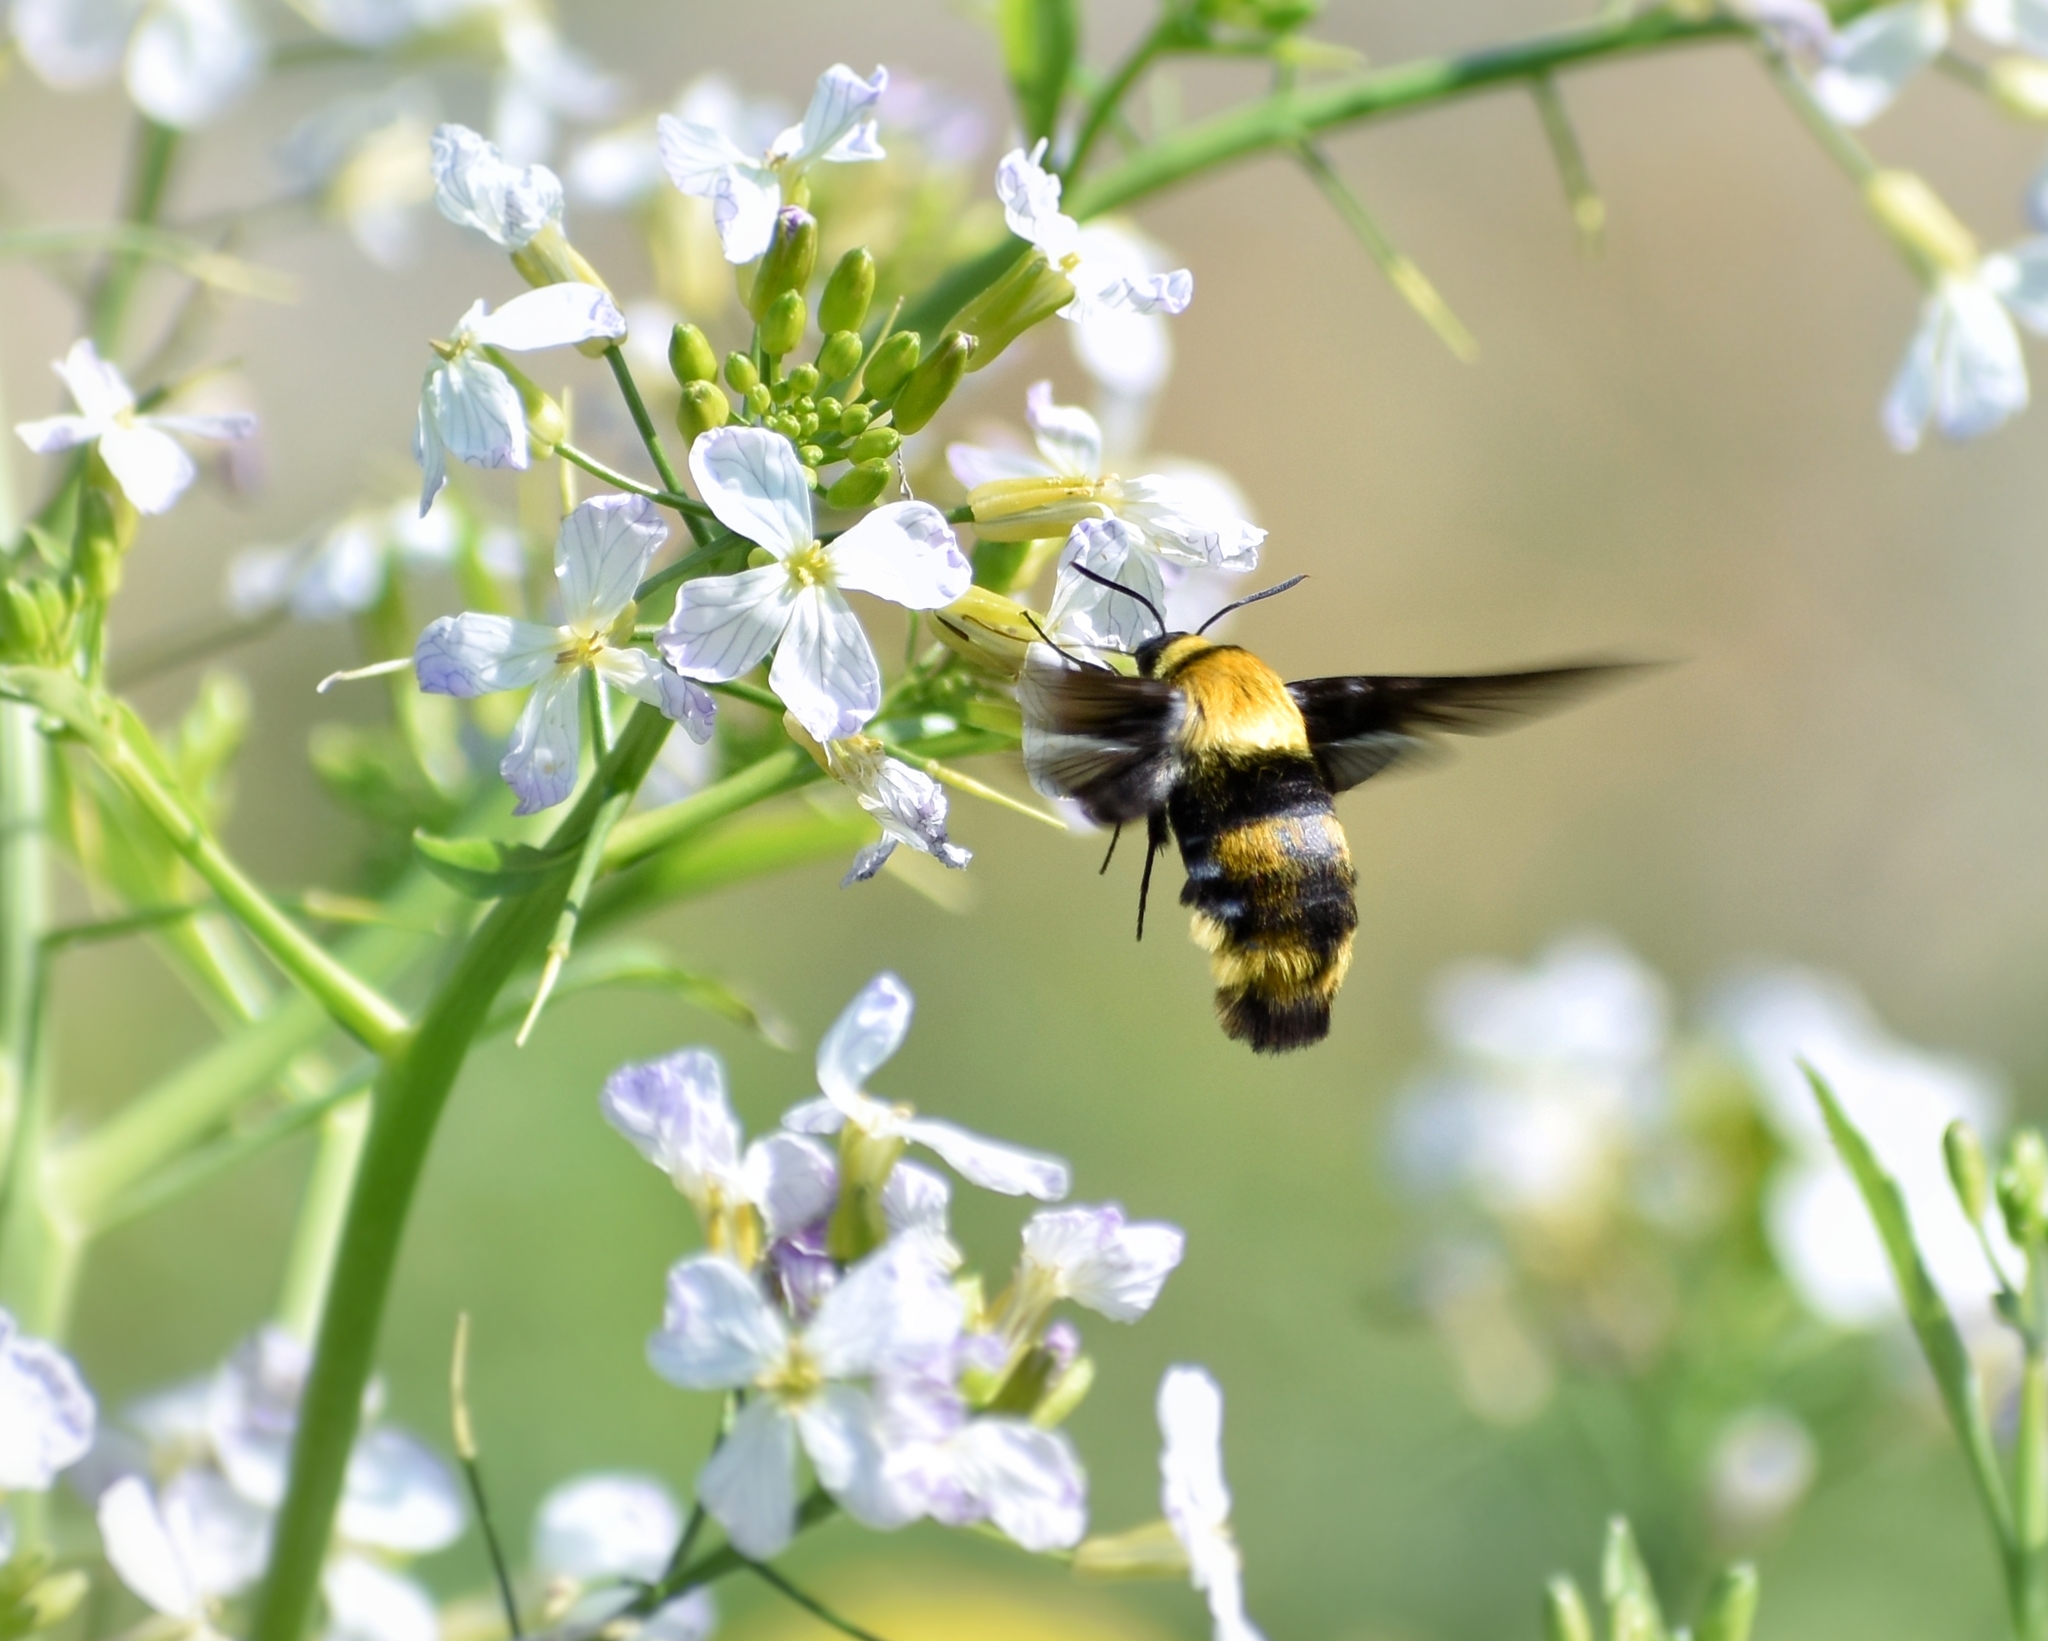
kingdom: Animalia
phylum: Arthropoda
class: Insecta
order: Lepidoptera
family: Sphingidae
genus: Sataspes
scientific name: Sataspes infernalis
